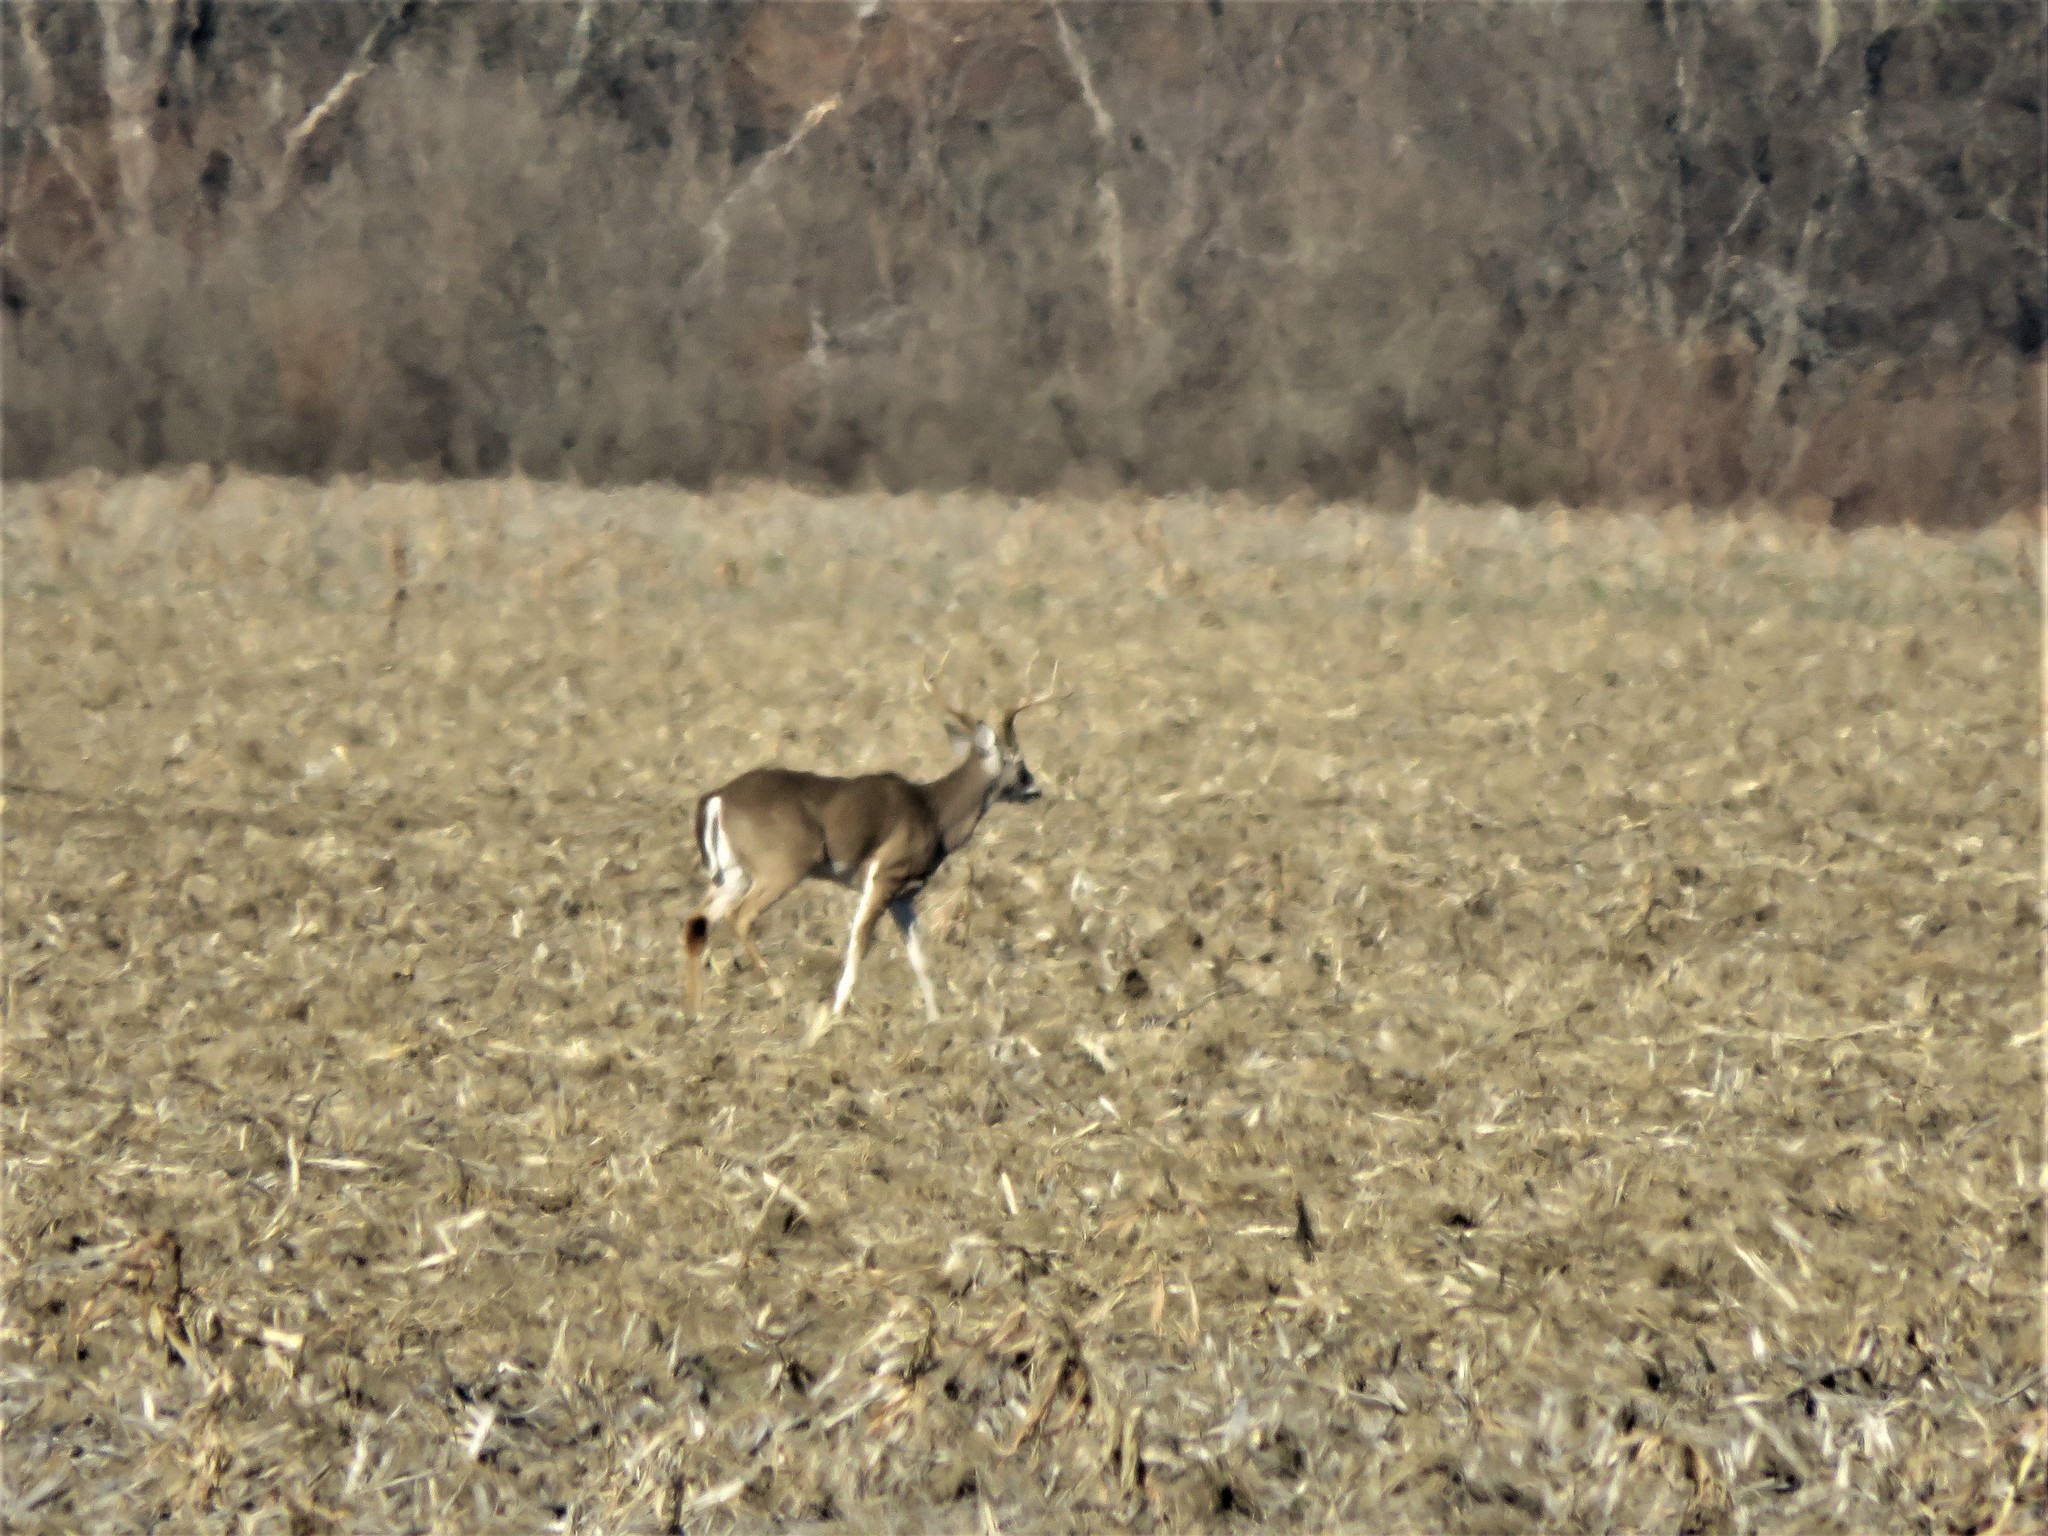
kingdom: Animalia
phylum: Chordata
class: Mammalia
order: Artiodactyla
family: Cervidae
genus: Odocoileus
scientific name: Odocoileus virginianus
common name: White-tailed deer
